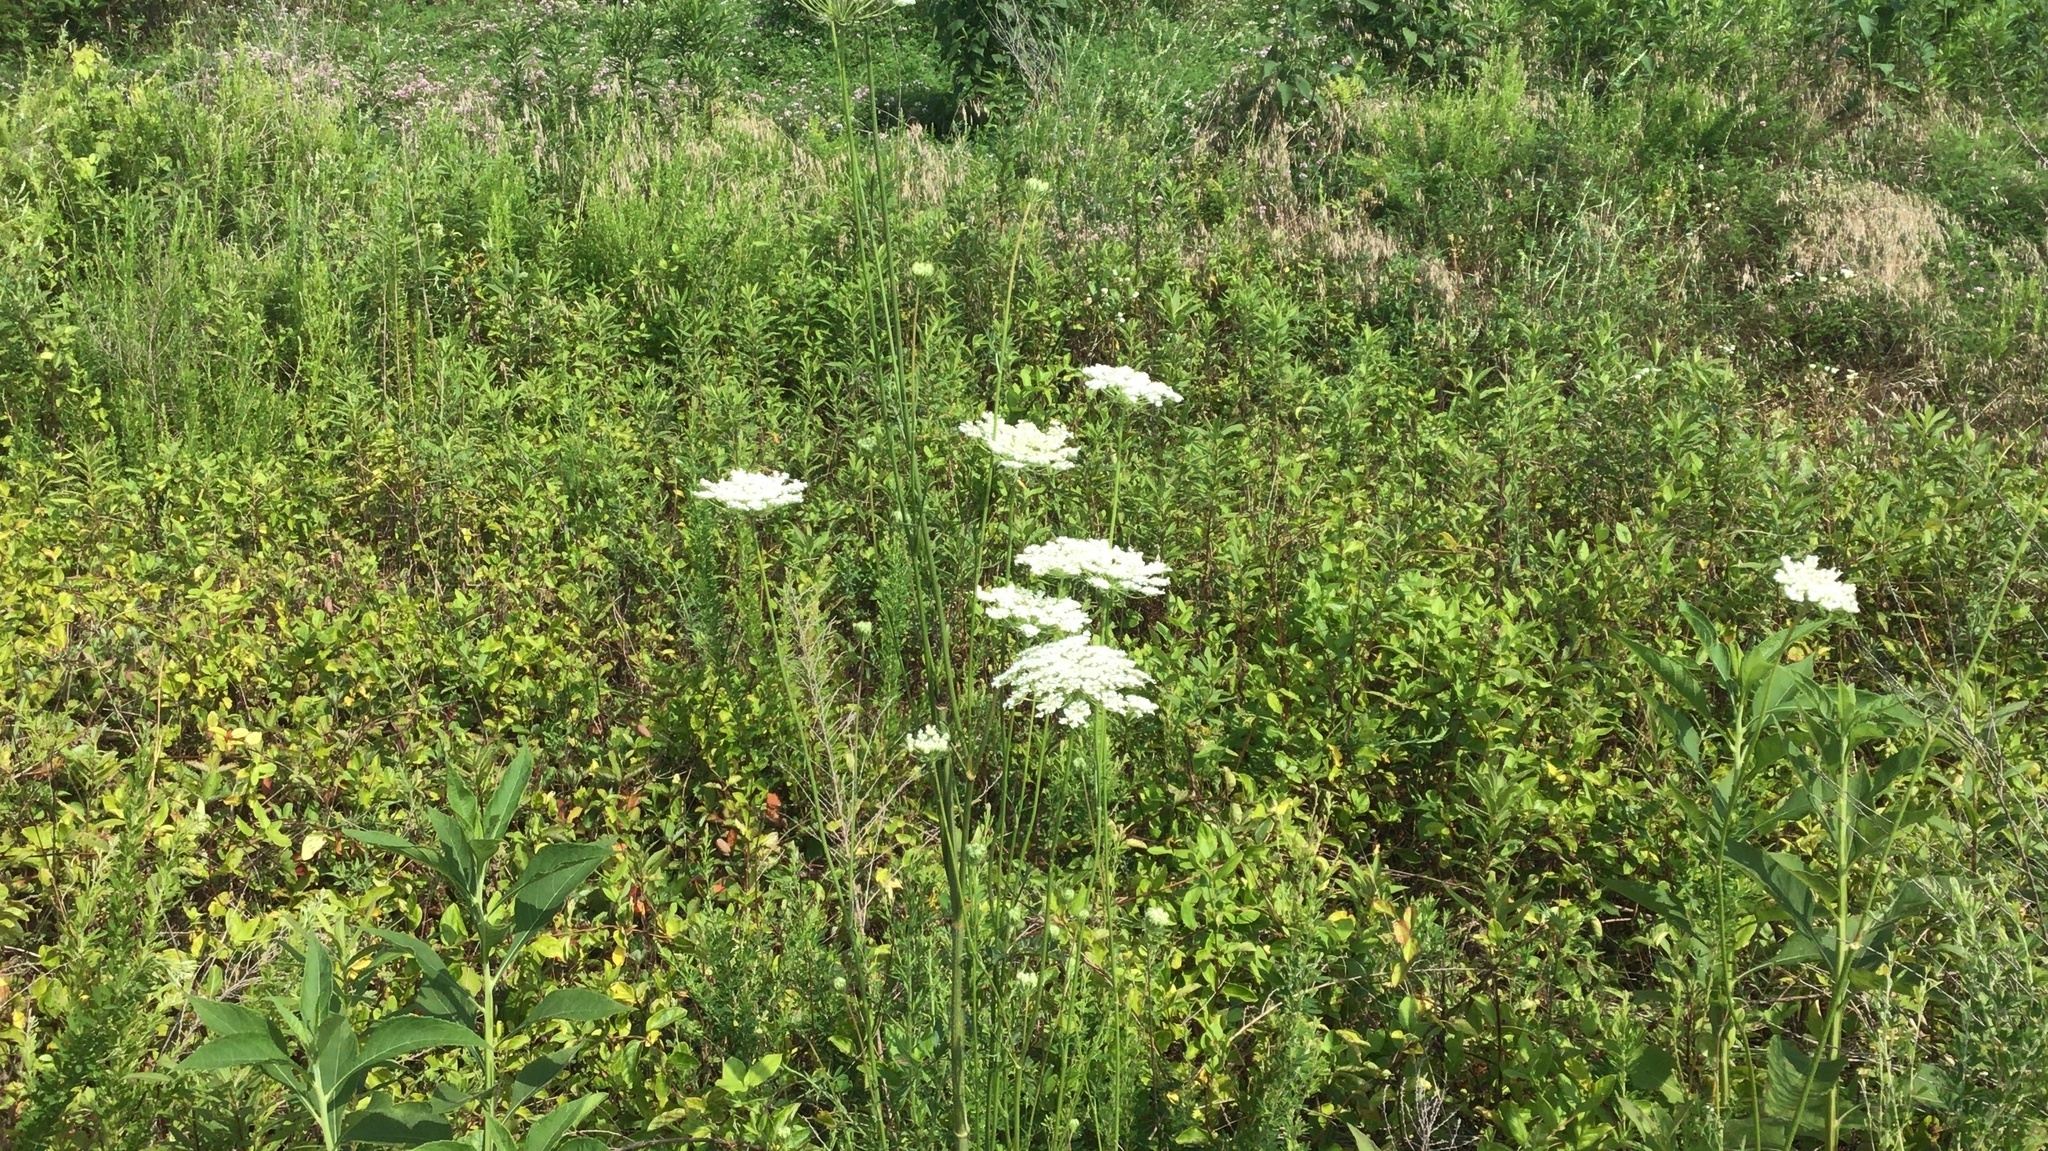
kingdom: Plantae
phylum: Tracheophyta
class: Magnoliopsida
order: Apiales
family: Apiaceae
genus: Daucus
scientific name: Daucus carota
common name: Wild carrot
